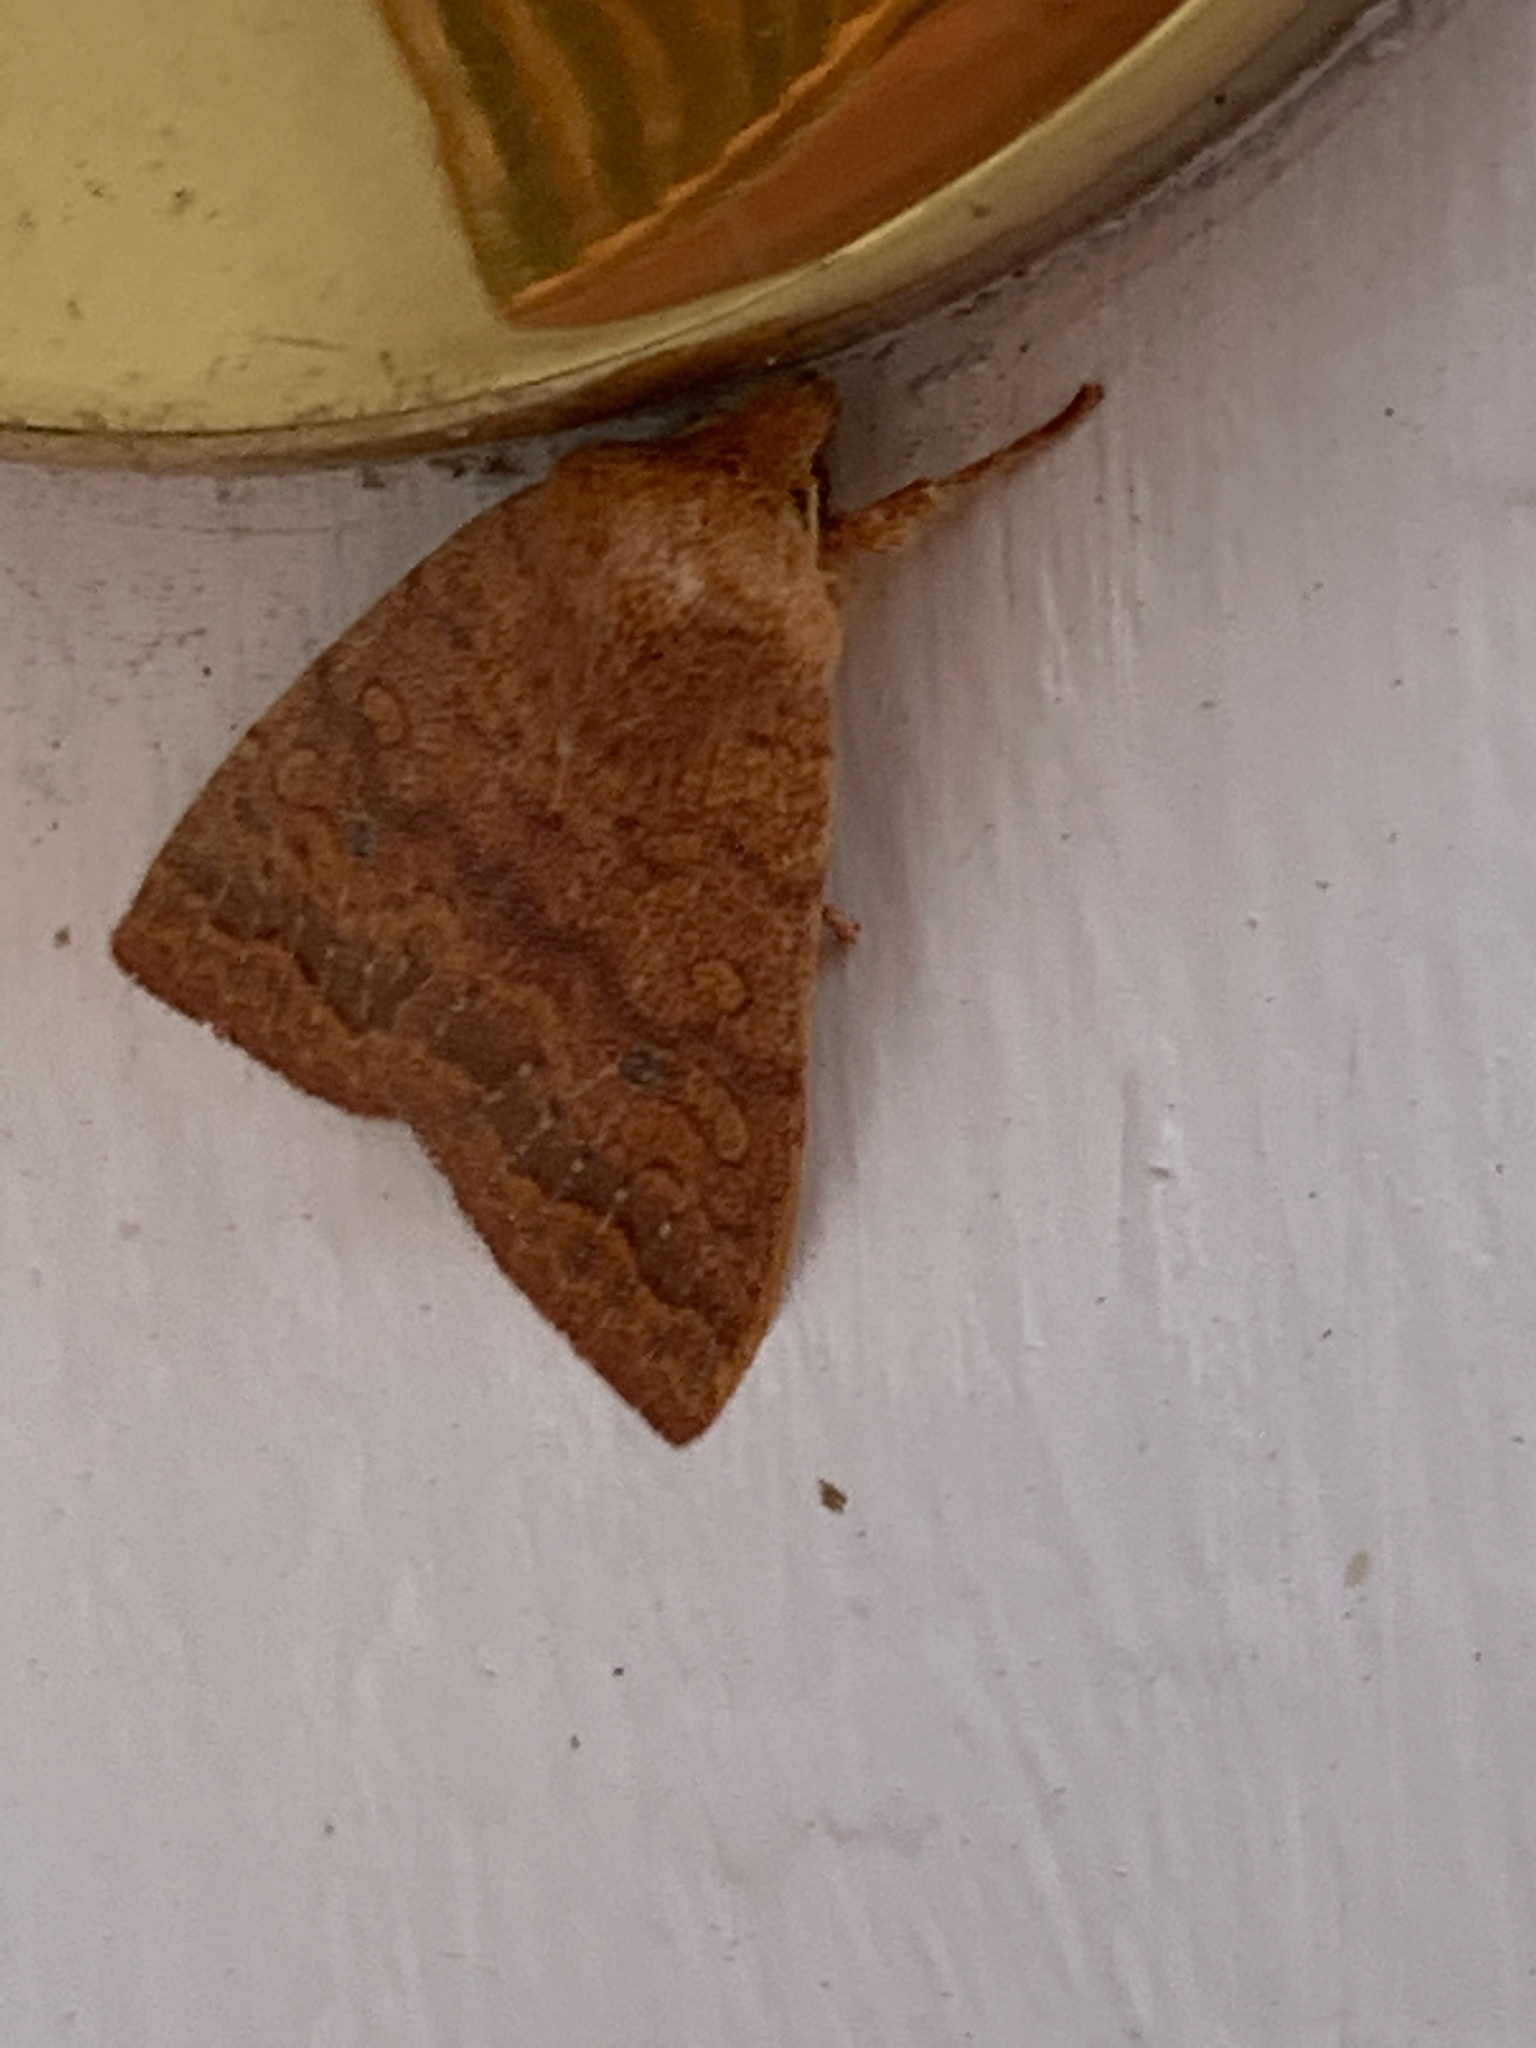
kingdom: Animalia
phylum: Arthropoda
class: Insecta
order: Lepidoptera
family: Noctuidae
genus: Agrochola
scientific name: Agrochola bicolorago
